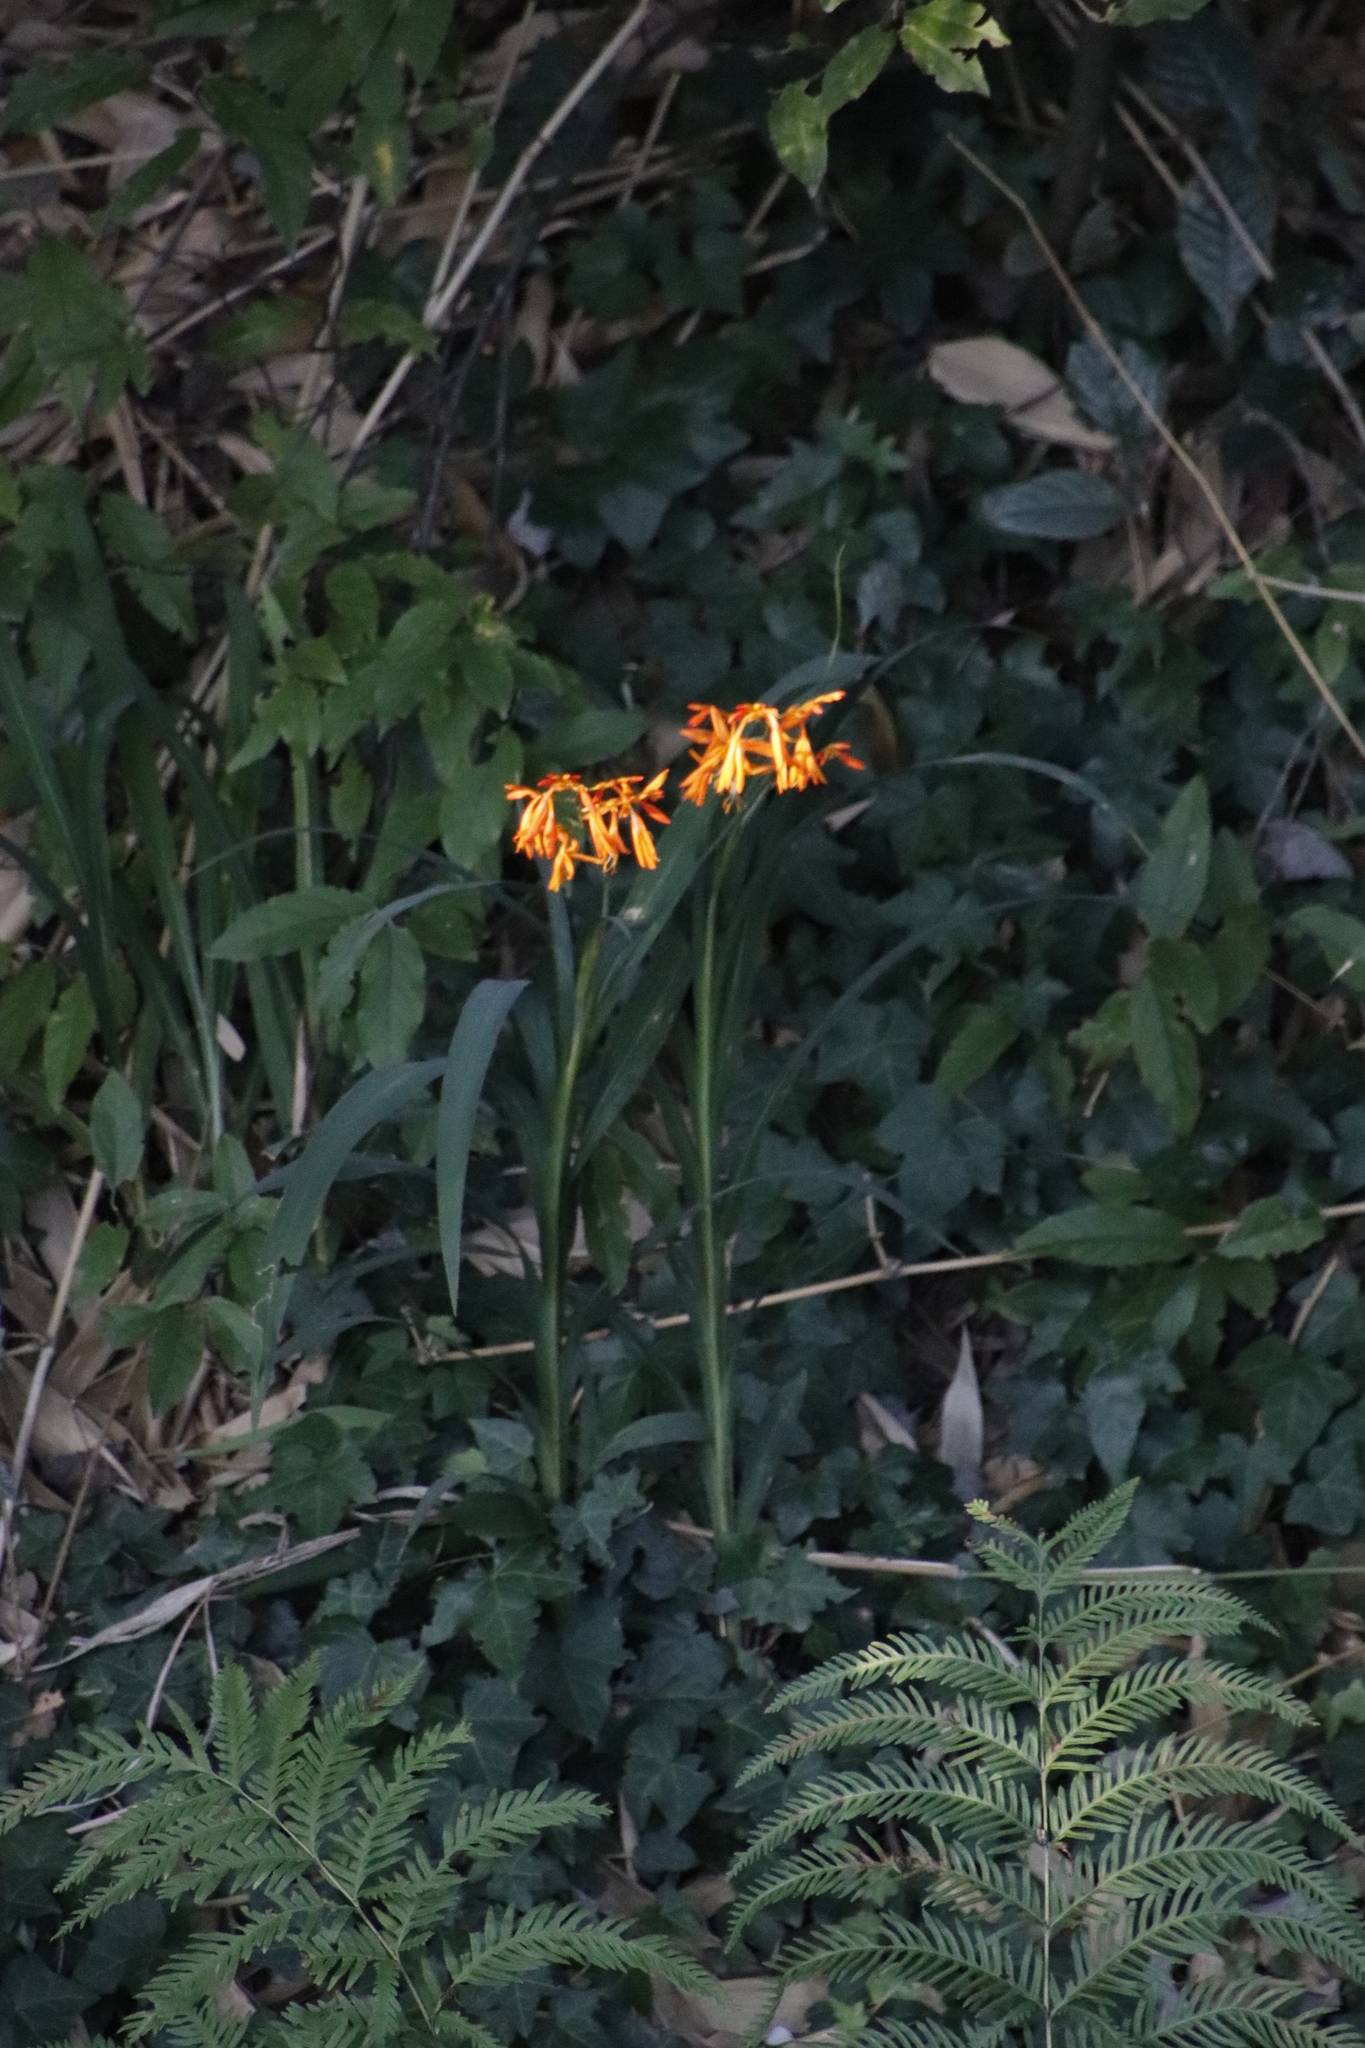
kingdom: Plantae
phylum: Tracheophyta
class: Liliopsida
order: Asparagales
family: Iridaceae
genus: Crocosmia
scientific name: Crocosmia aurea
